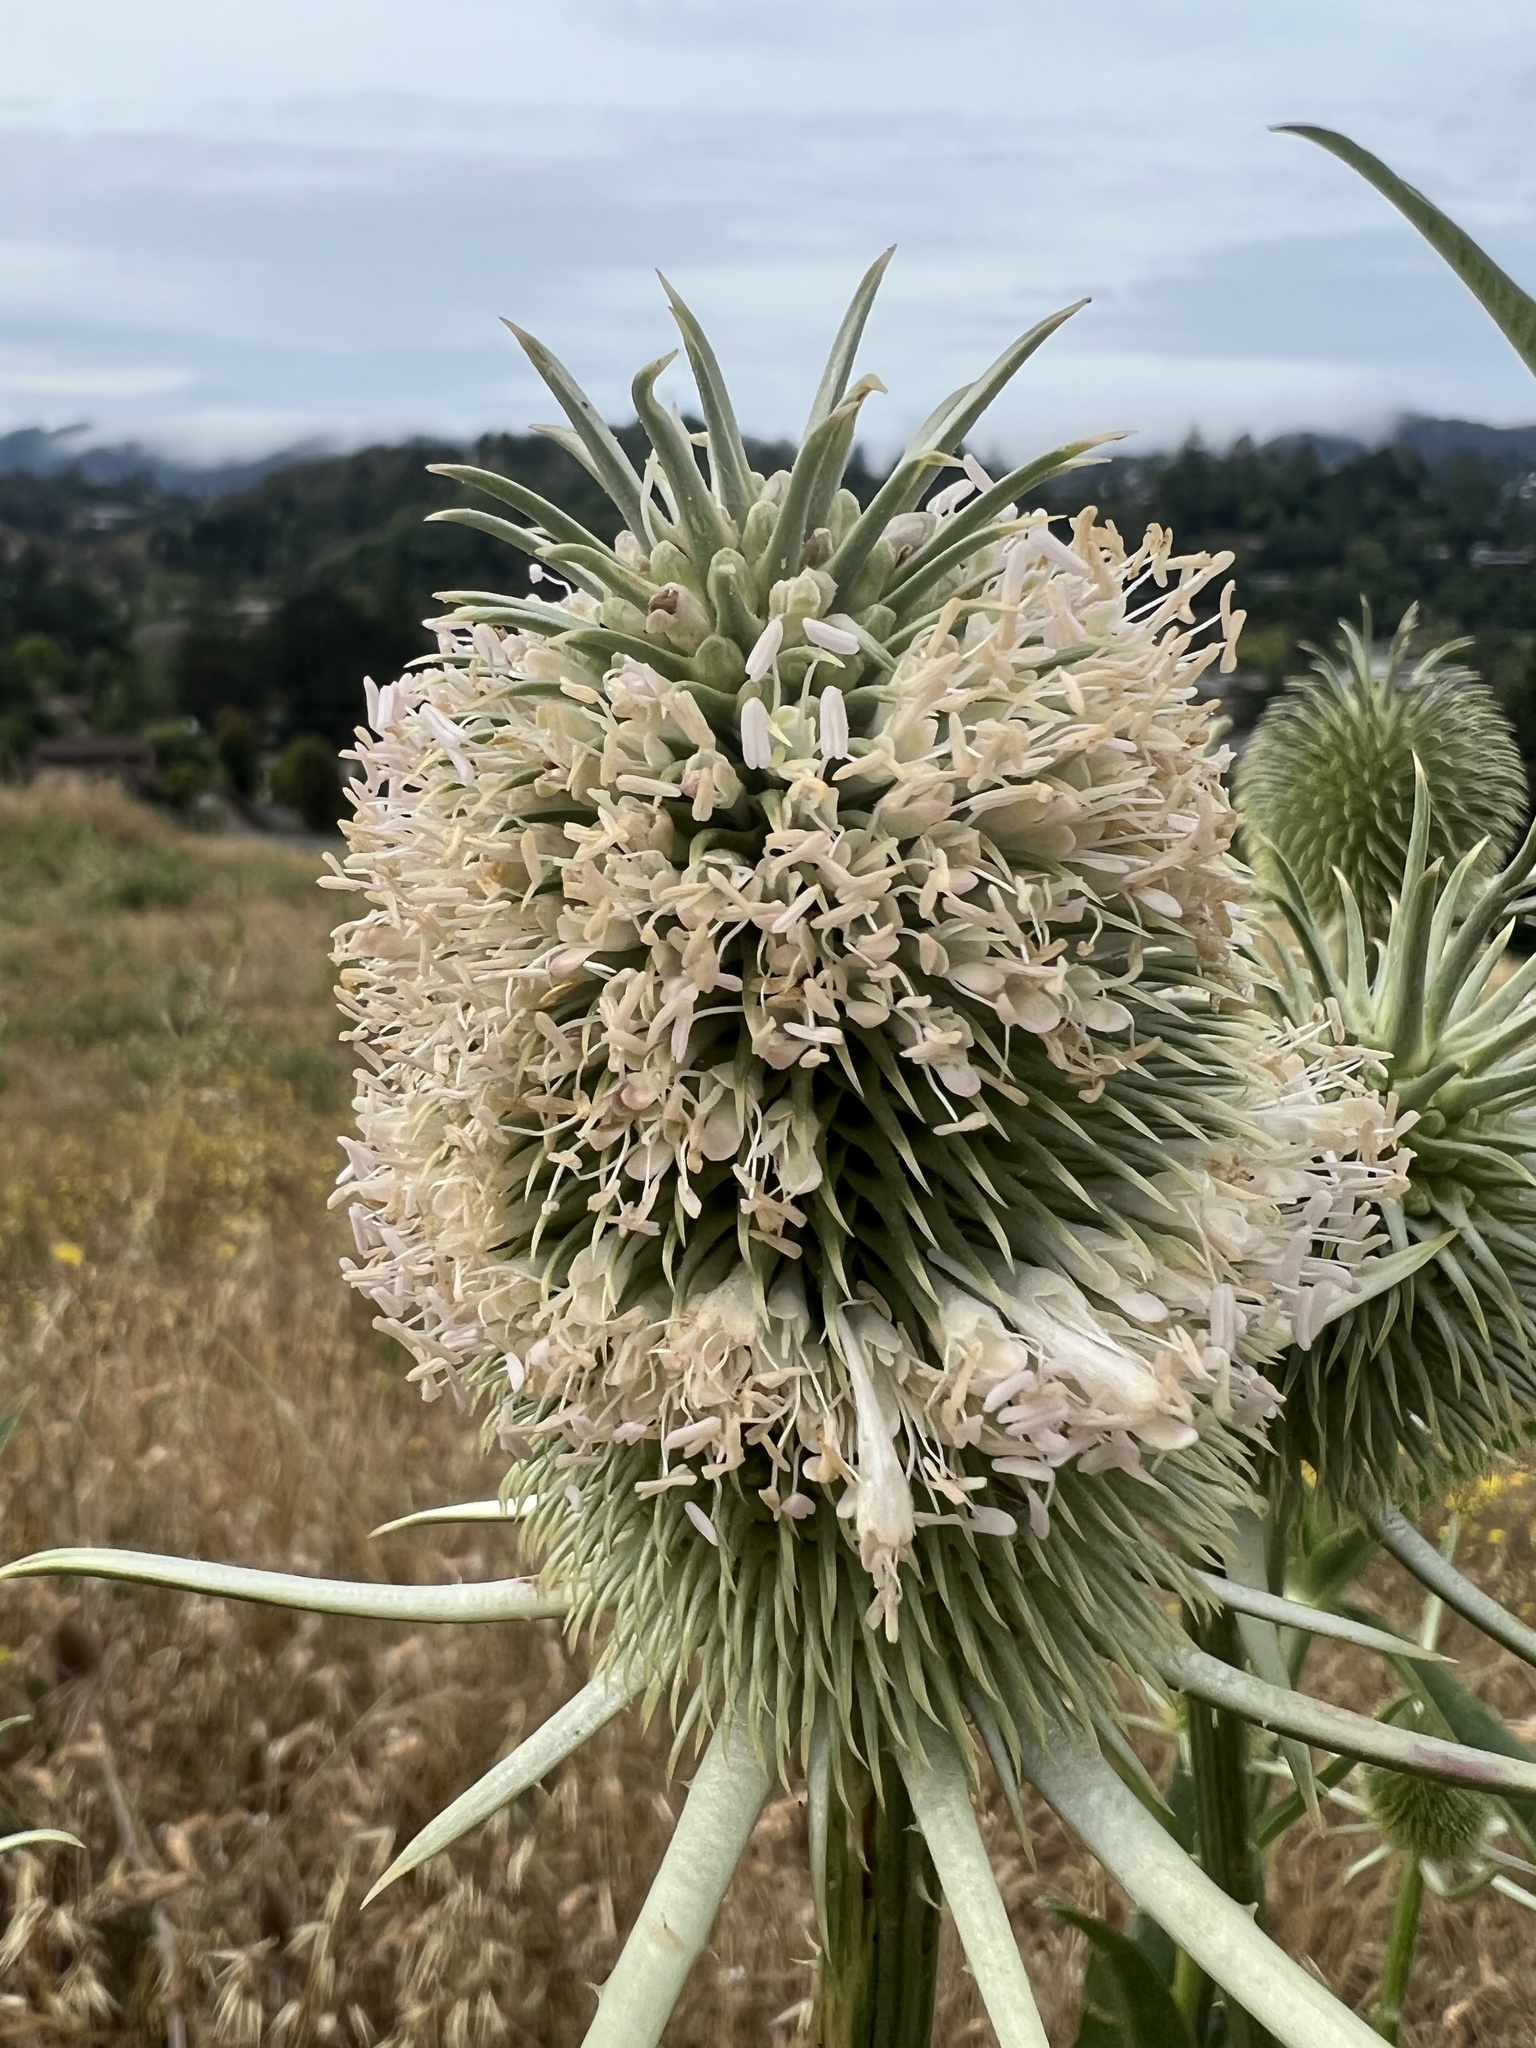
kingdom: Plantae
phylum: Tracheophyta
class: Magnoliopsida
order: Dipsacales
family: Caprifoliaceae
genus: Dipsacus
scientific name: Dipsacus sativus
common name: Fuller's teasel
